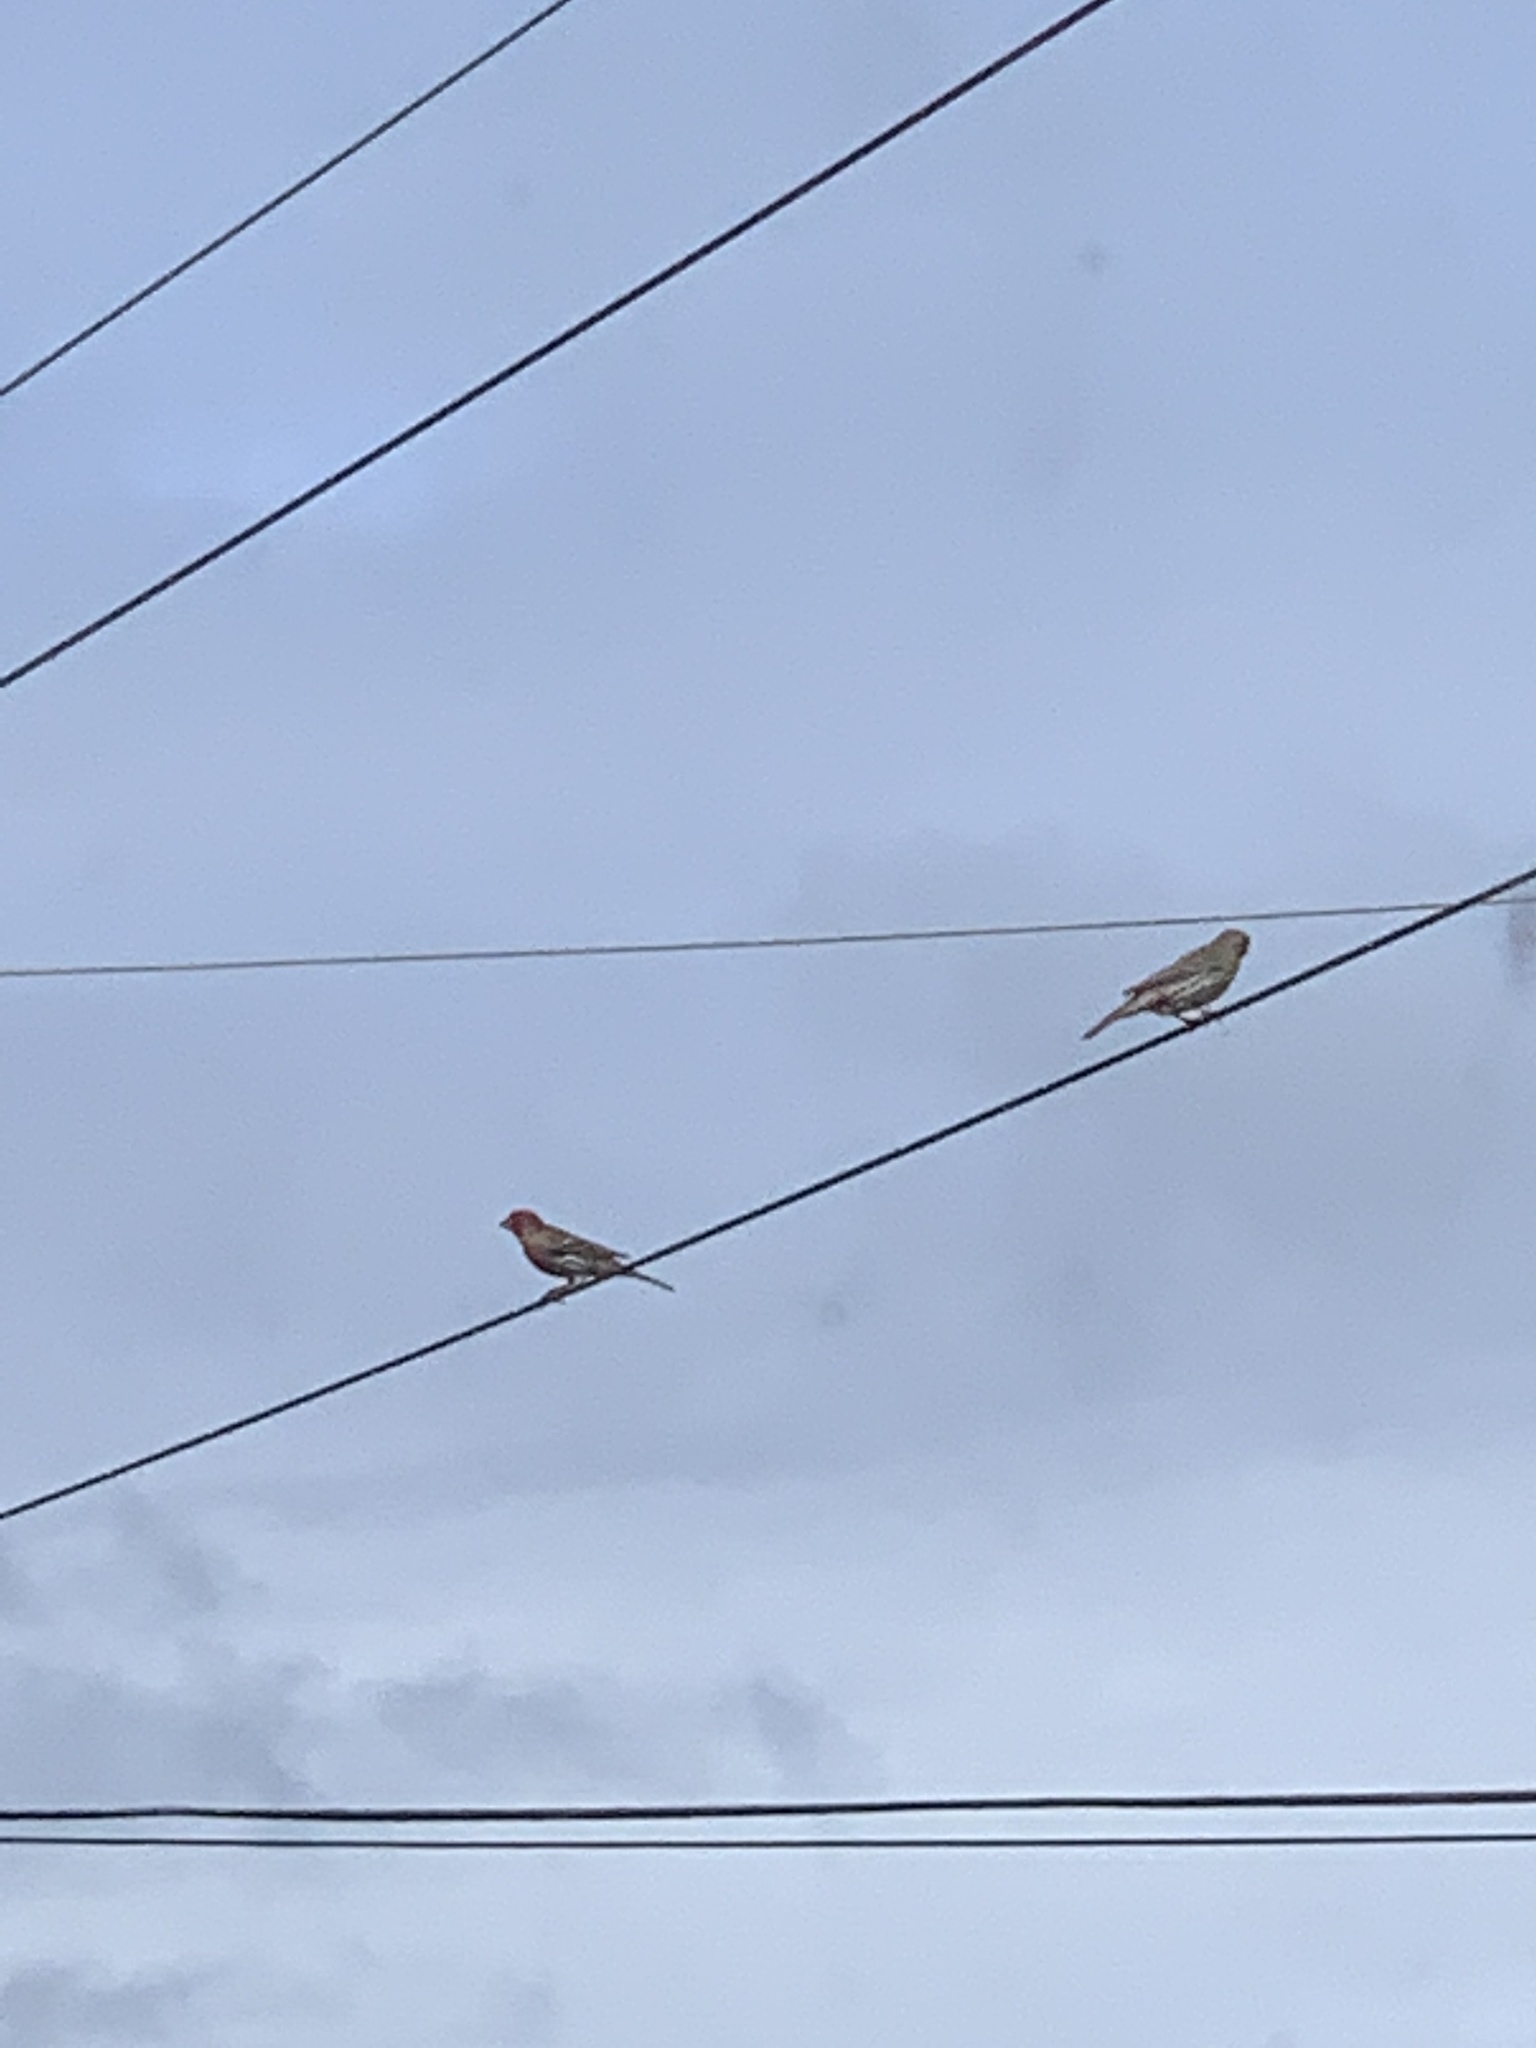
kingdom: Animalia
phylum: Chordata
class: Aves
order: Passeriformes
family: Fringillidae
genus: Haemorhous
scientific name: Haemorhous mexicanus
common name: House finch
